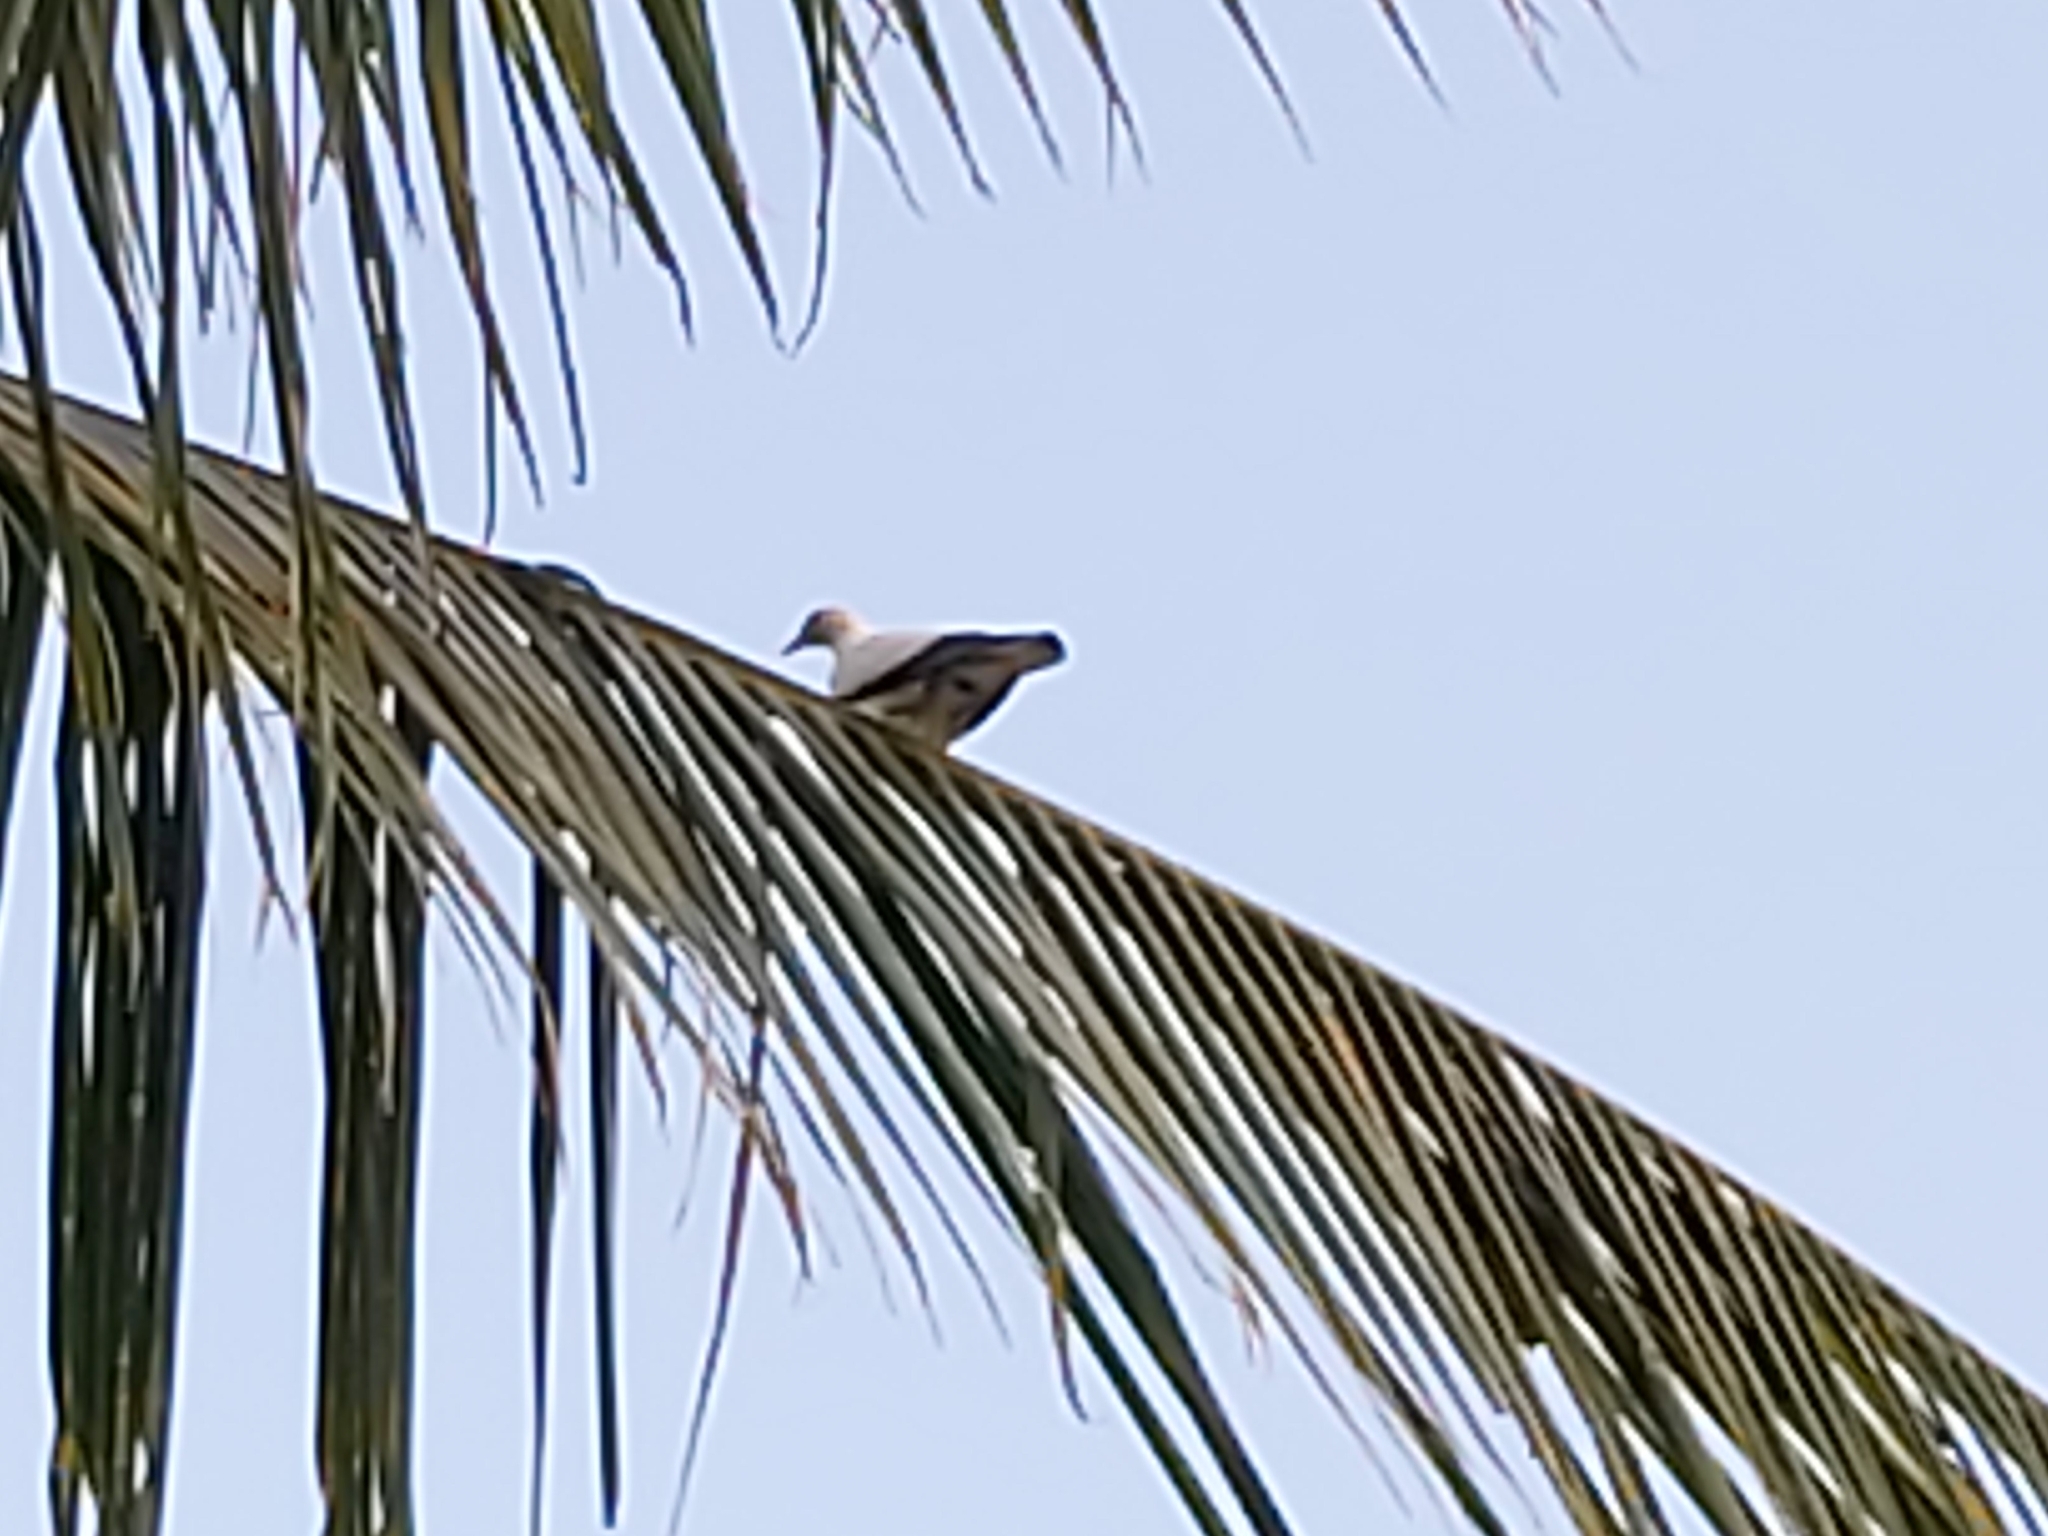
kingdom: Animalia
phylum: Chordata
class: Aves
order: Columbiformes
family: Columbidae
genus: Ducula
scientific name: Ducula spilorrhoa
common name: Torresian imperial pigeon
